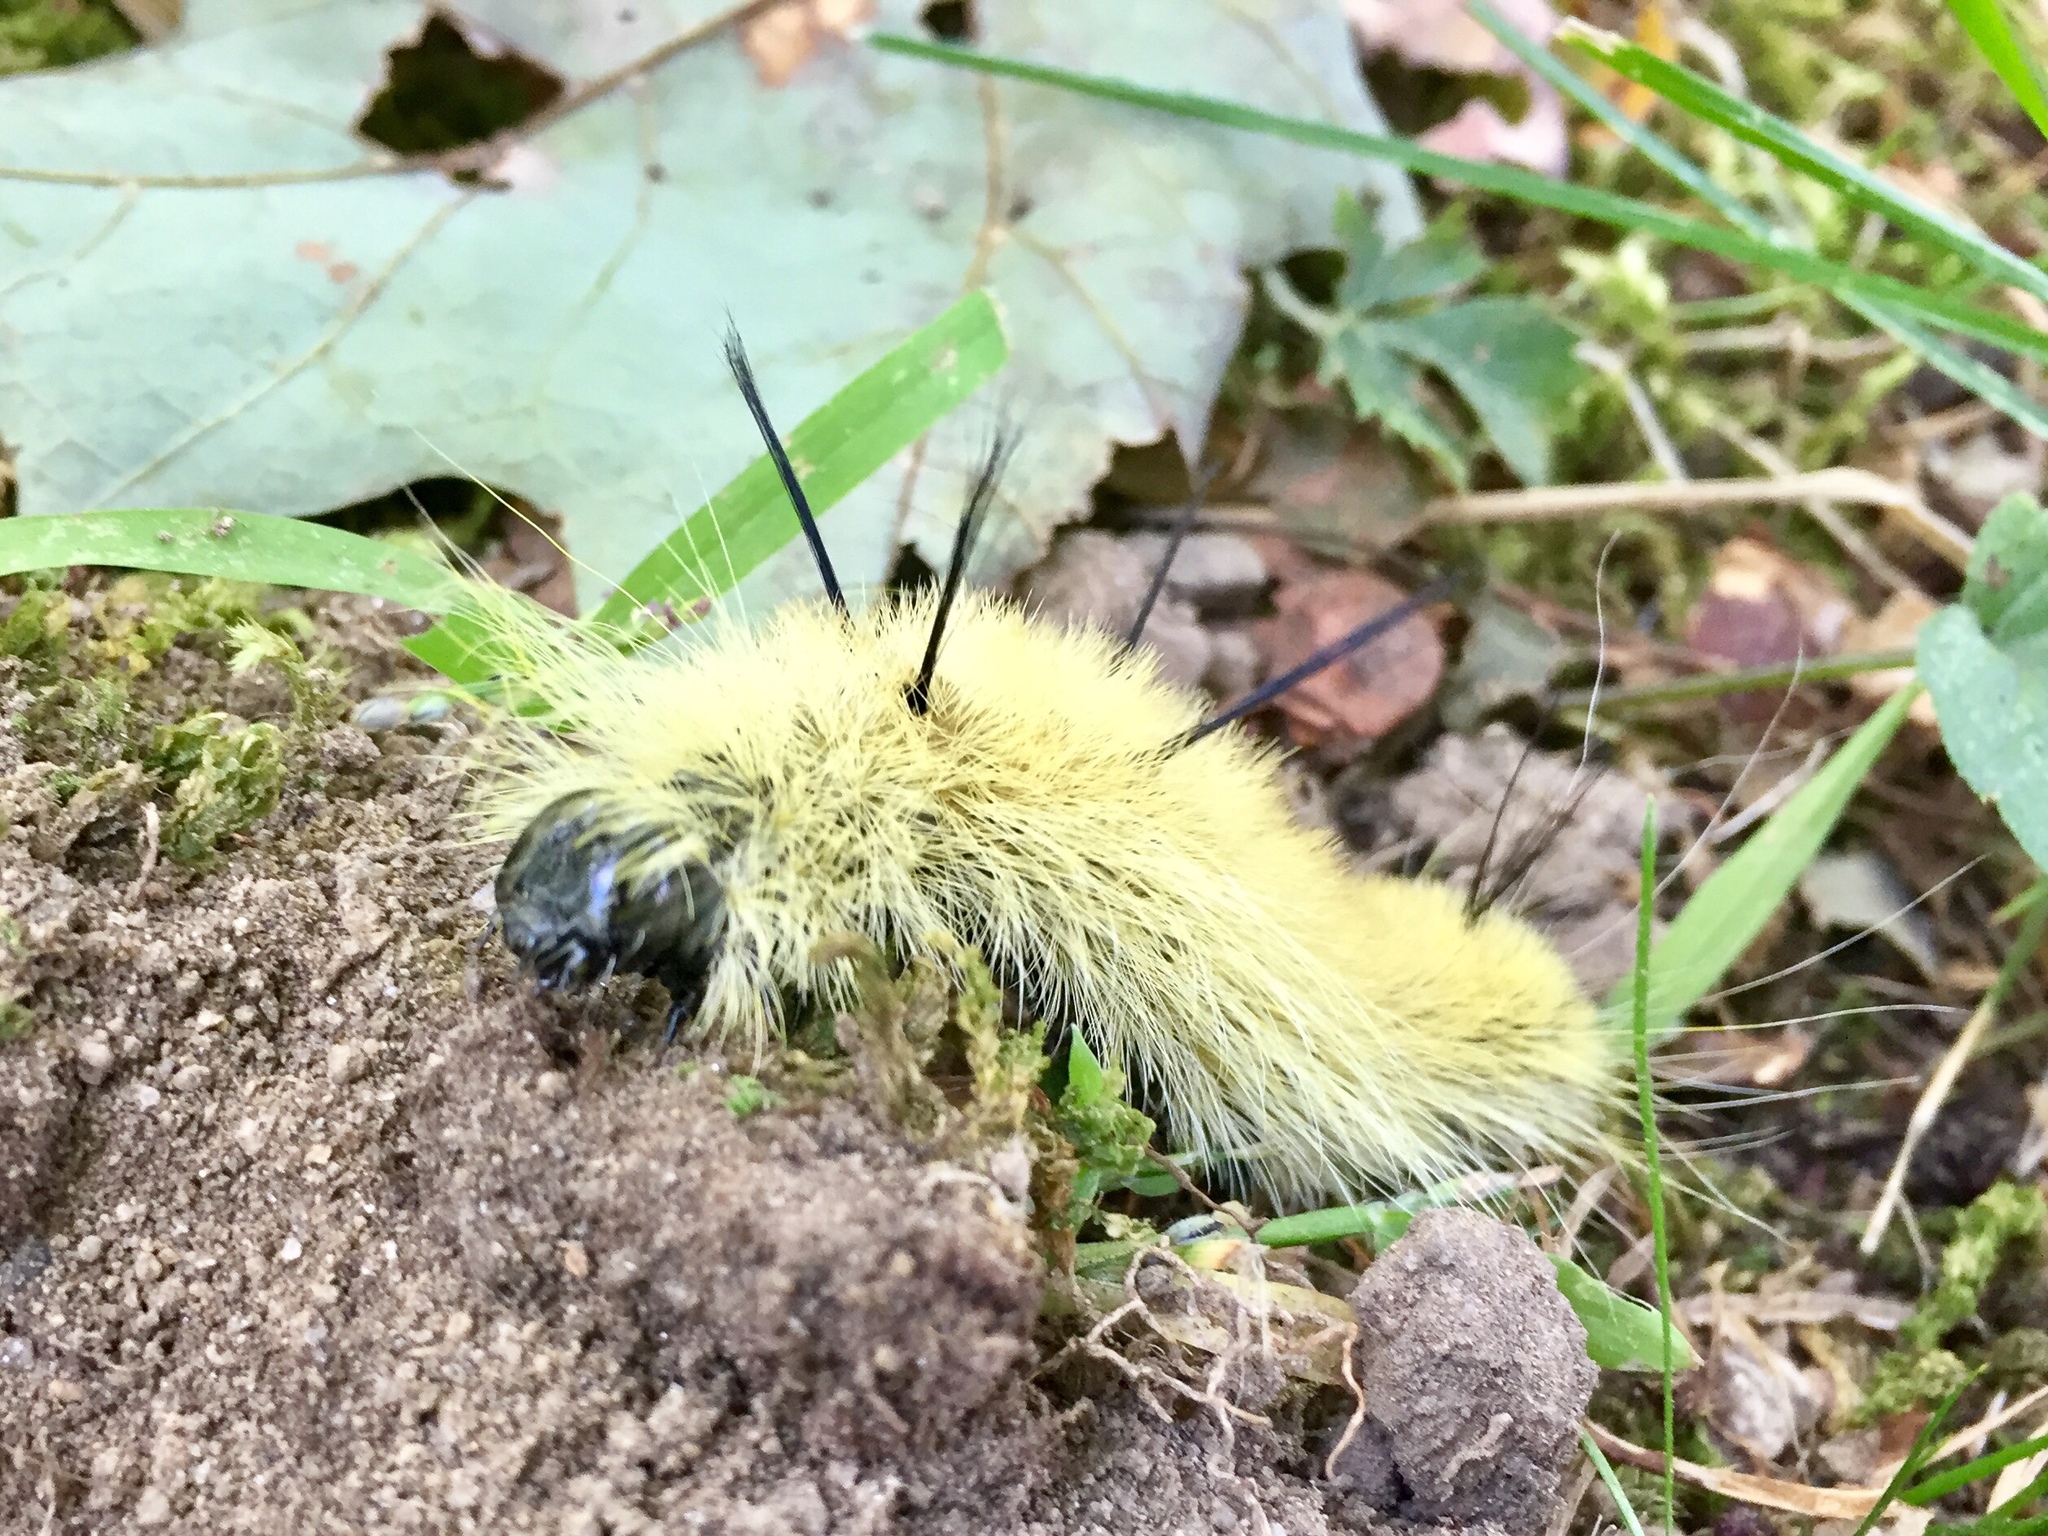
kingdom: Animalia
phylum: Arthropoda
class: Insecta
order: Lepidoptera
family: Noctuidae
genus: Acronicta
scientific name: Acronicta americana
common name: American dagger
